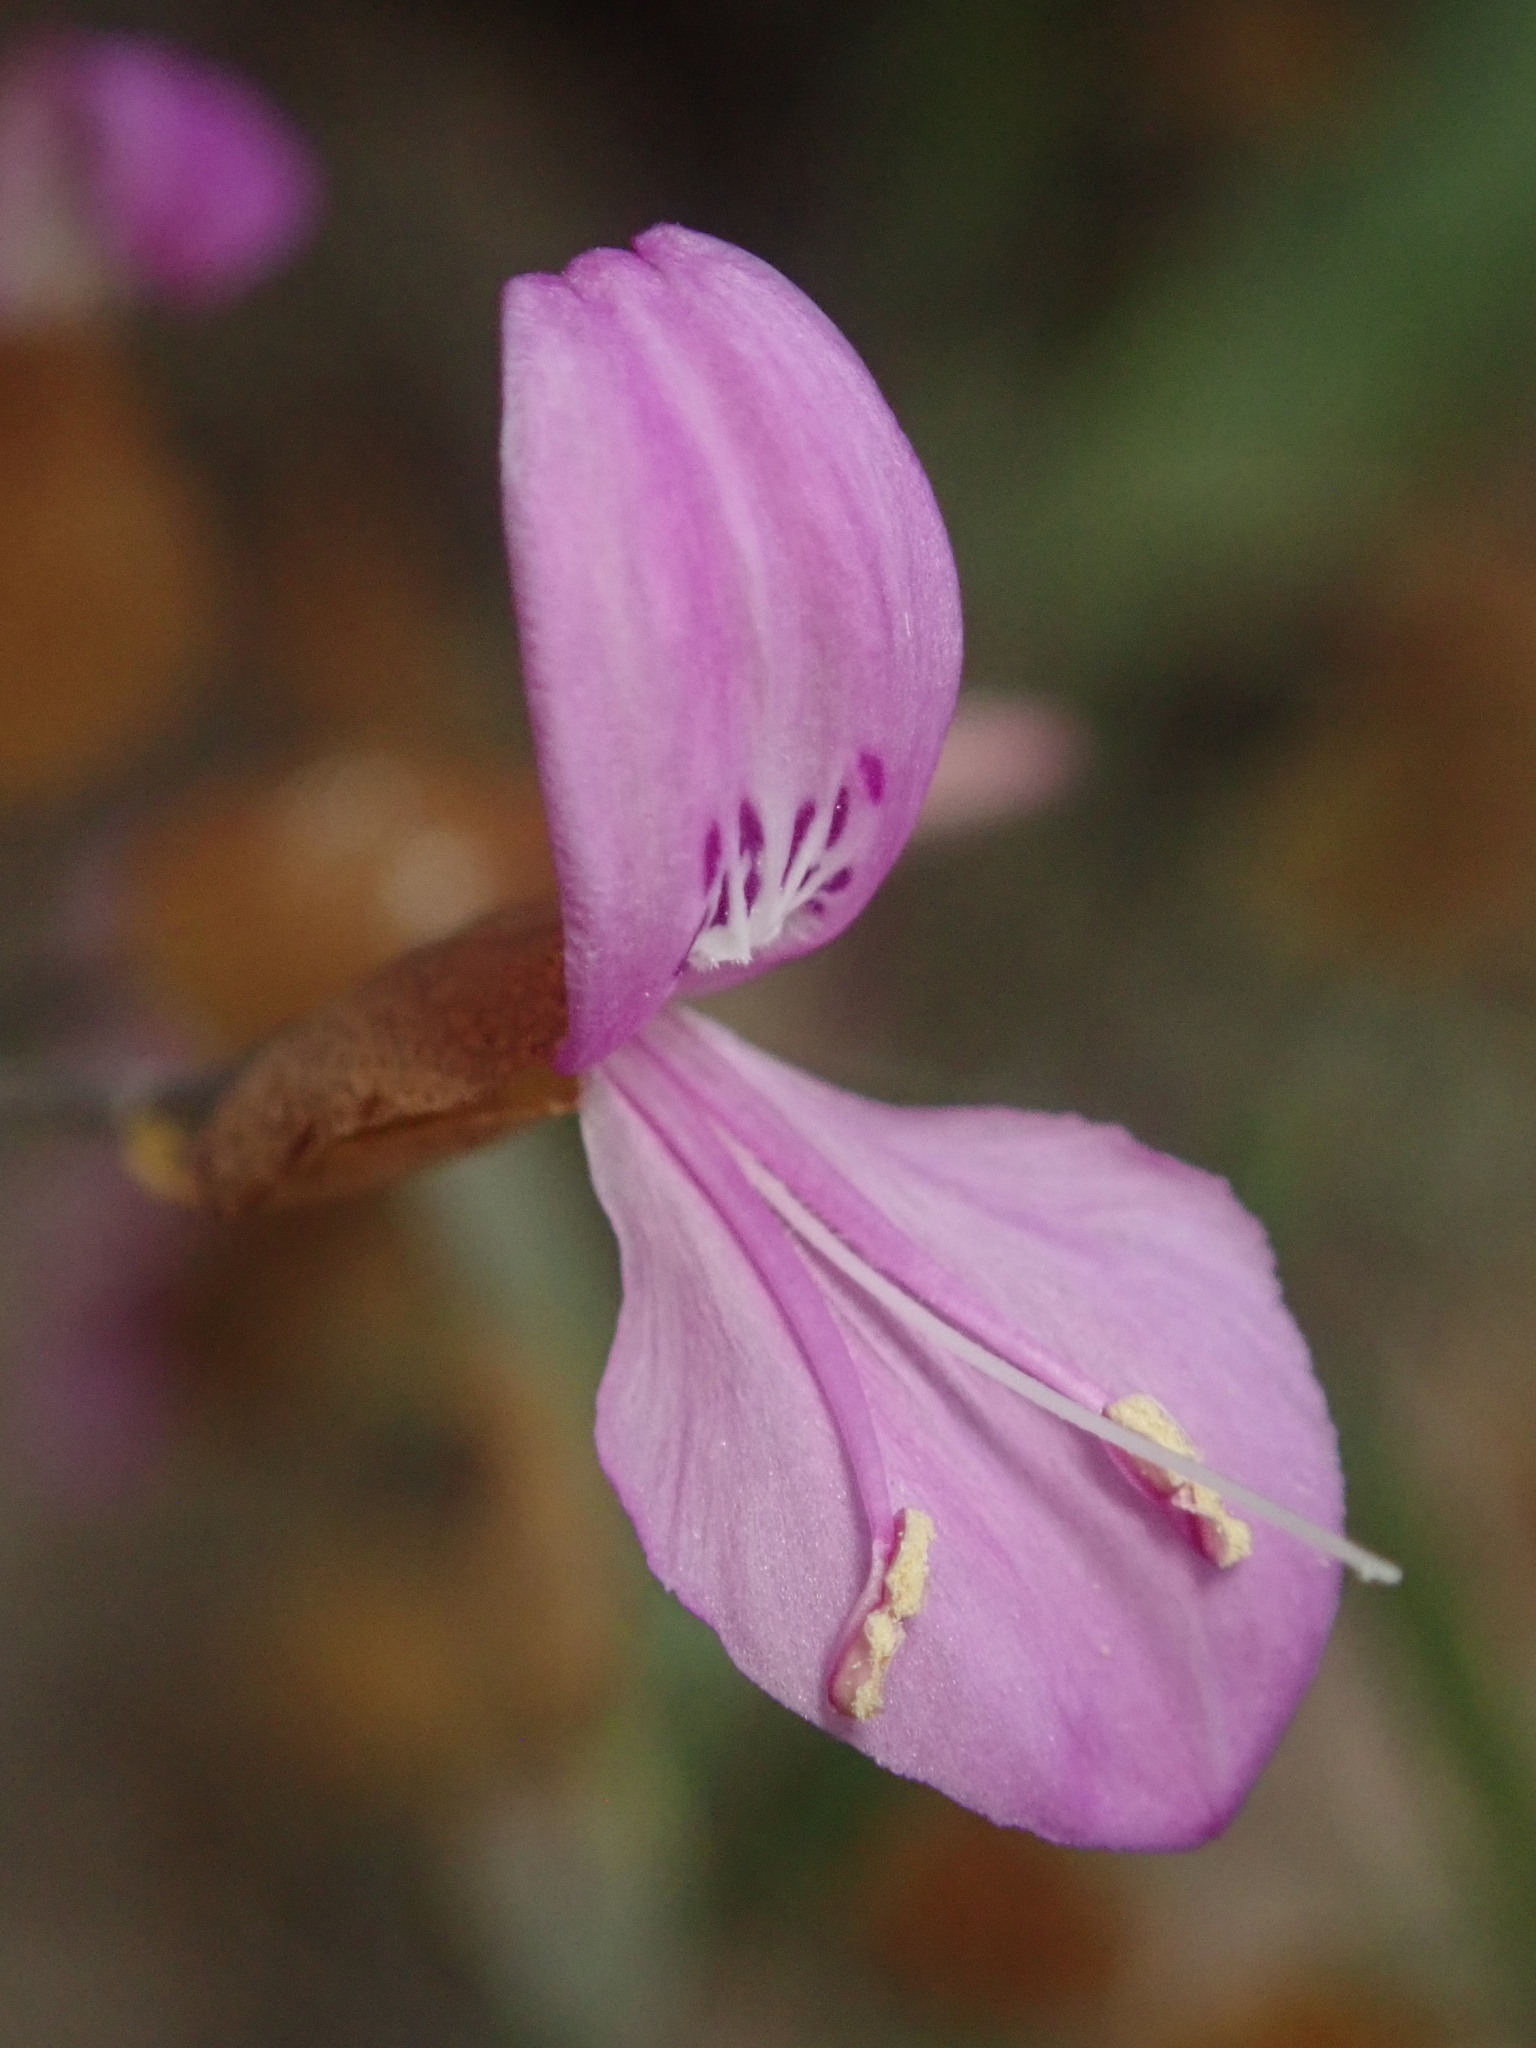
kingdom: Plantae
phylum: Tracheophyta
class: Magnoliopsida
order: Lamiales
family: Acanthaceae
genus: Dicliptera
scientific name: Dicliptera resupinata
